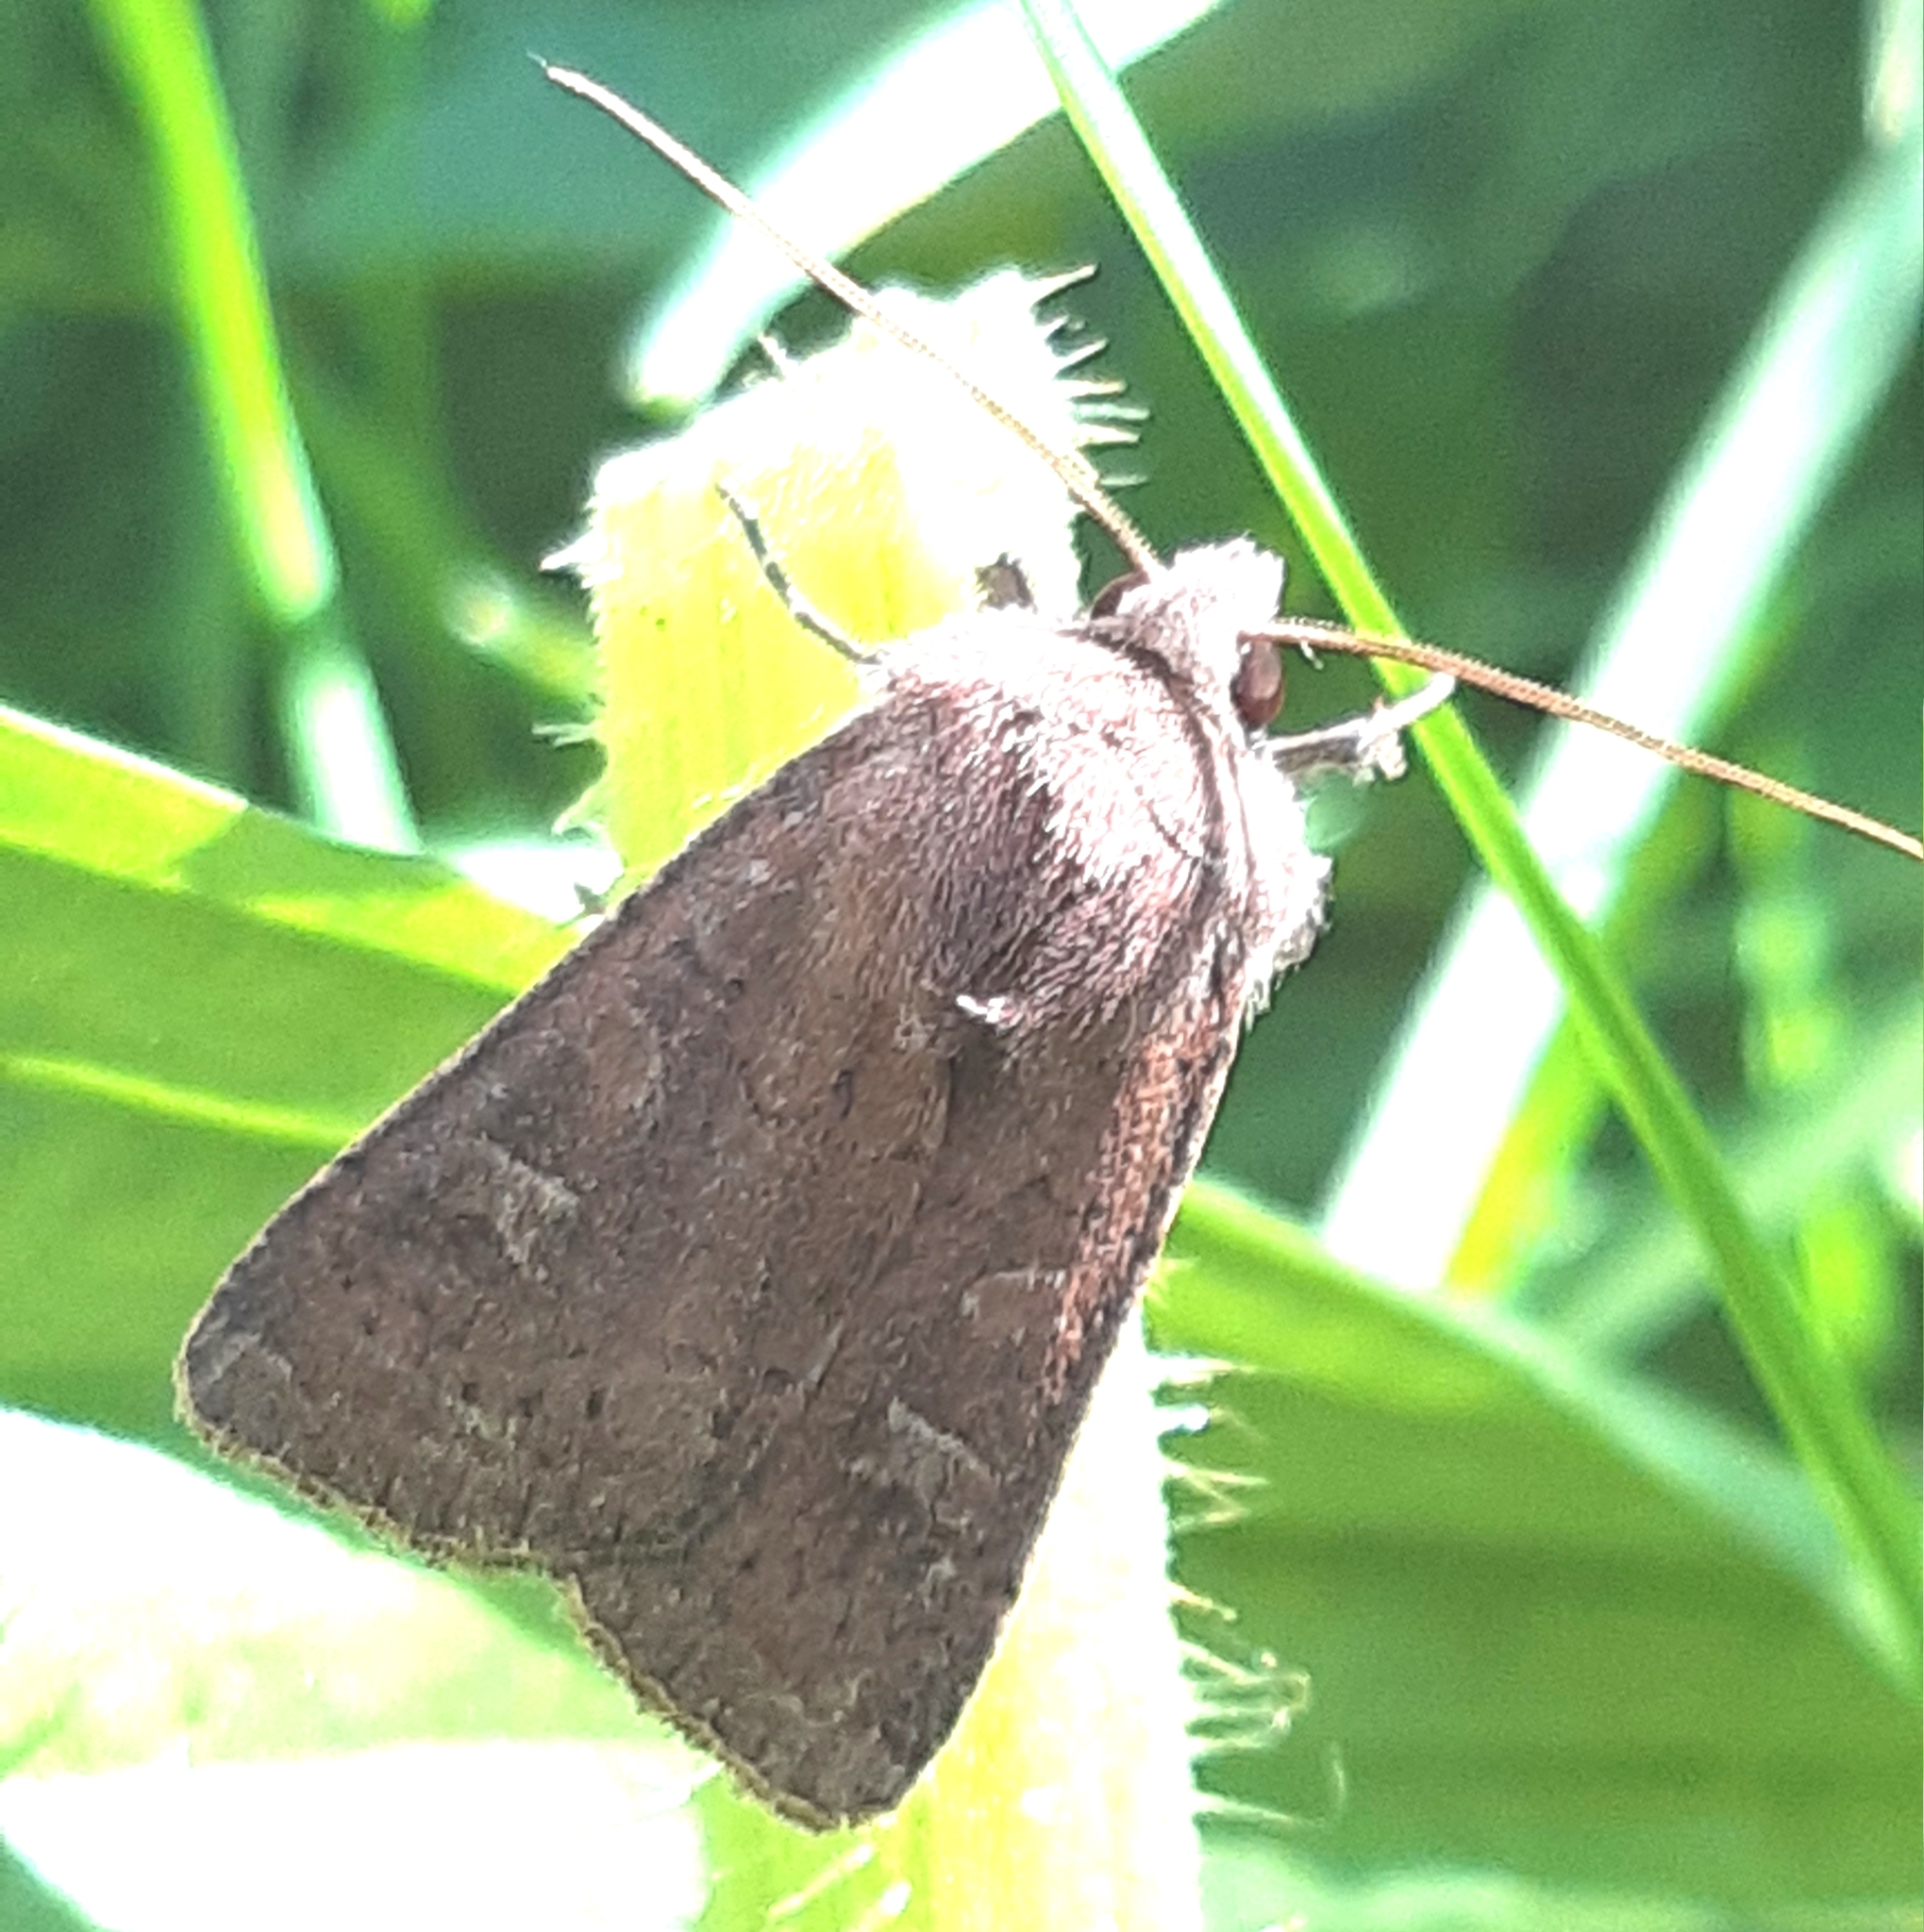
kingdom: Animalia
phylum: Arthropoda
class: Insecta
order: Lepidoptera
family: Noctuidae
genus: Xestia
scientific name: Xestia xanthographa
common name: Square-spot rustic
